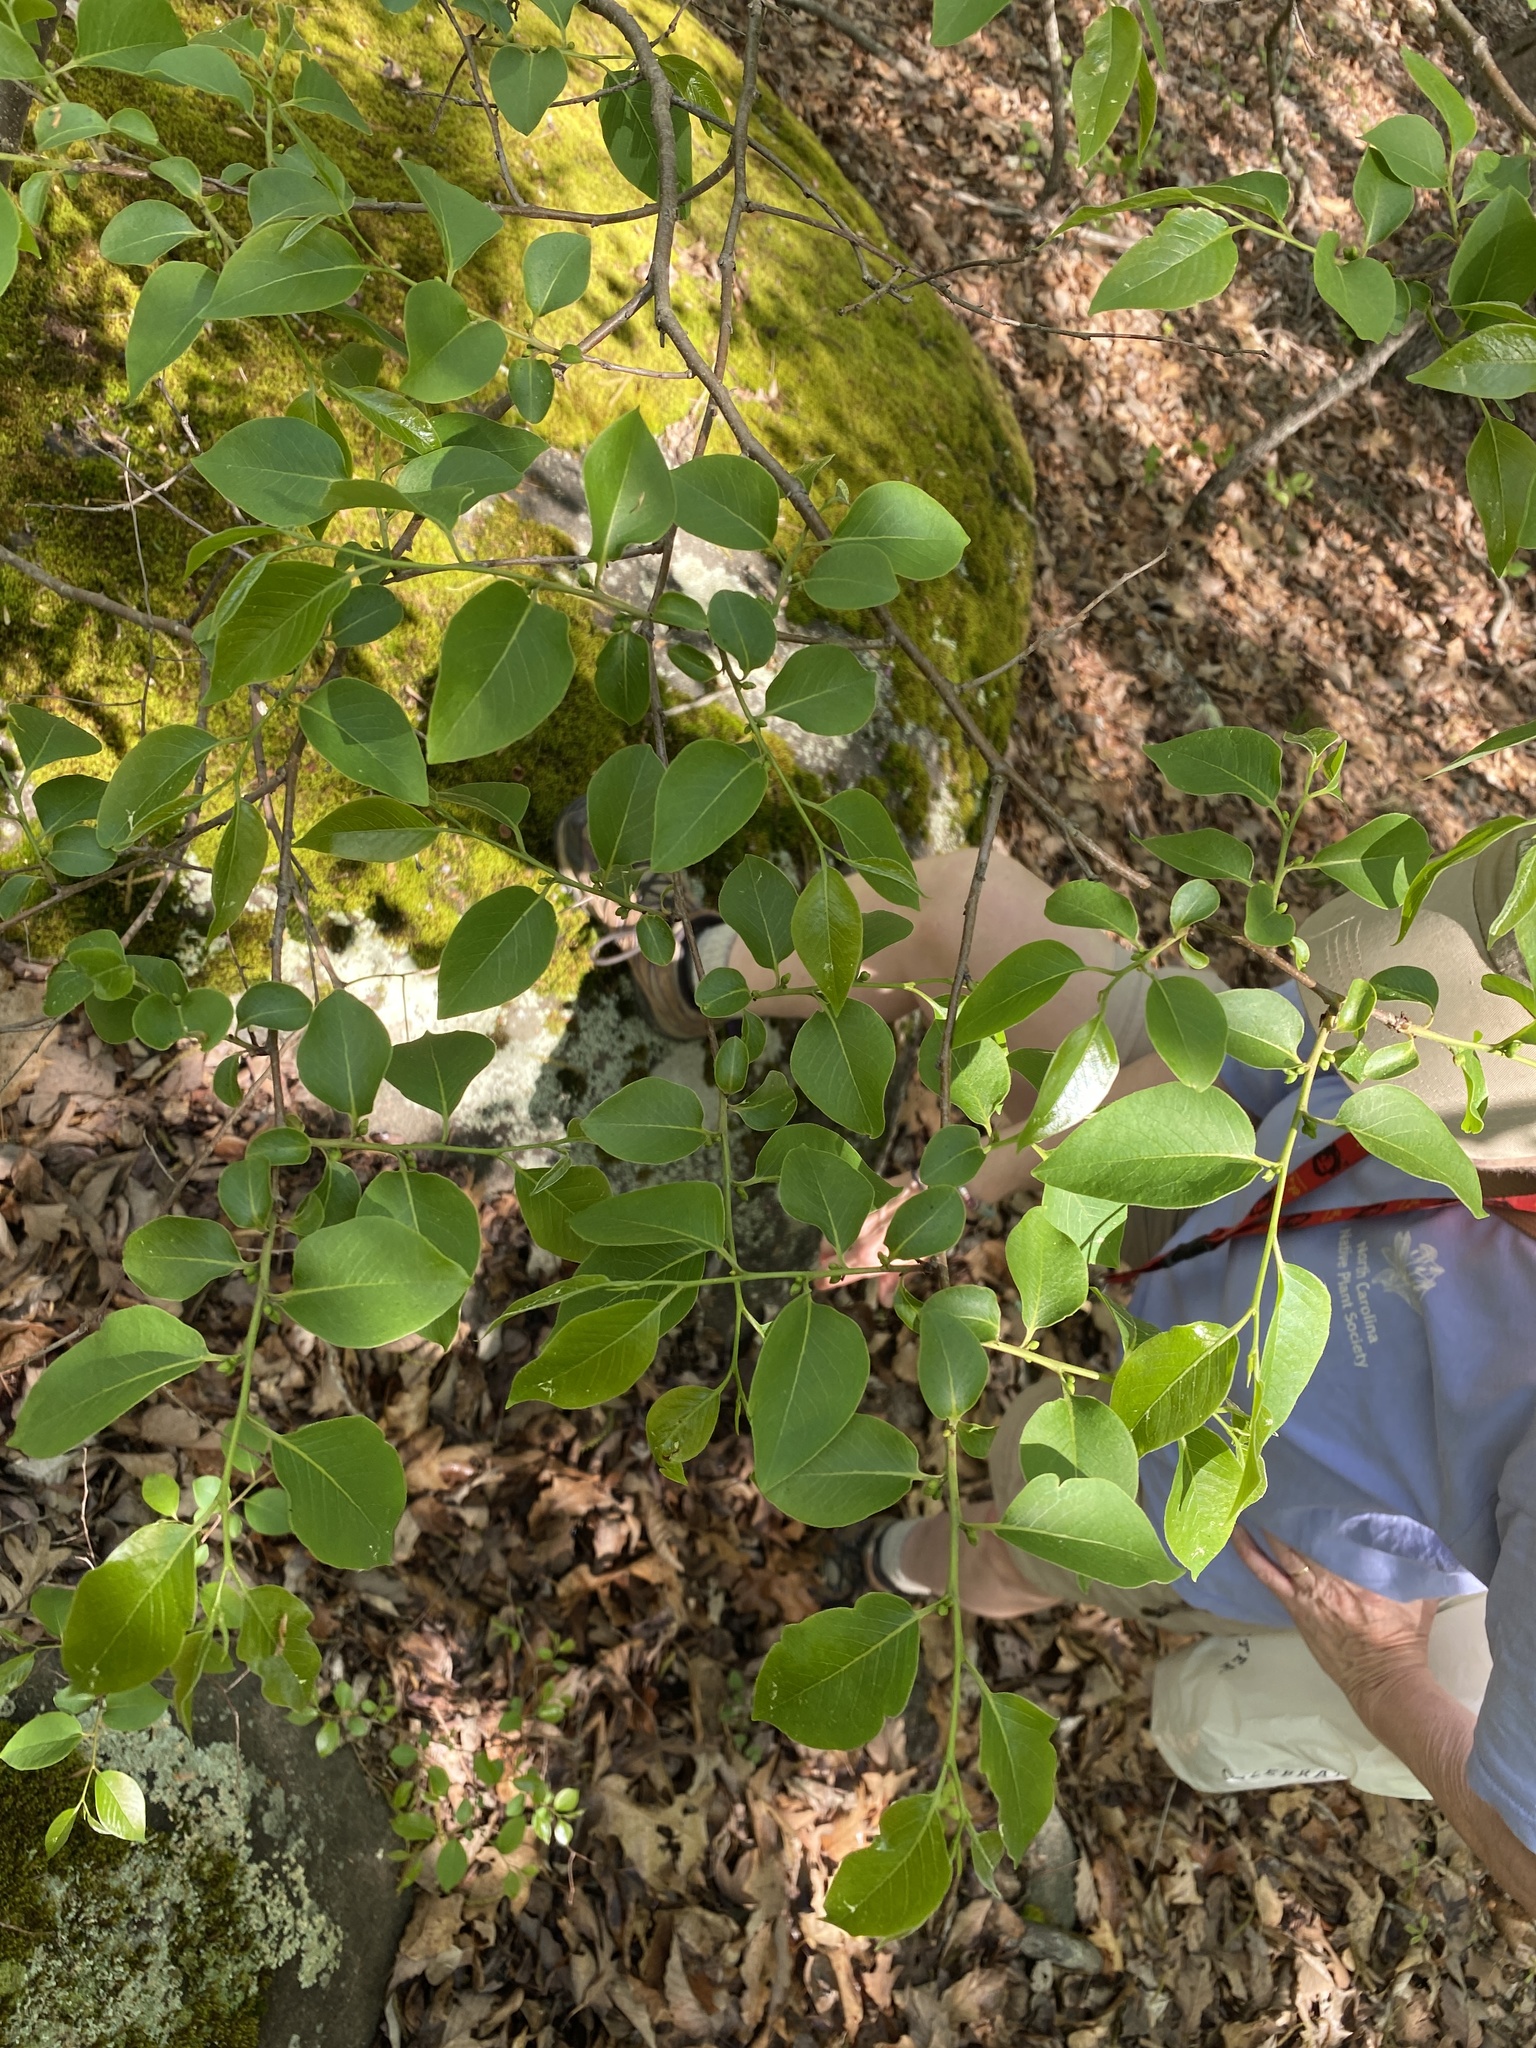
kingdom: Plantae
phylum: Tracheophyta
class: Magnoliopsida
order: Ericales
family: Ebenaceae
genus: Diospyros
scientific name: Diospyros virginiana
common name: Persimmon
